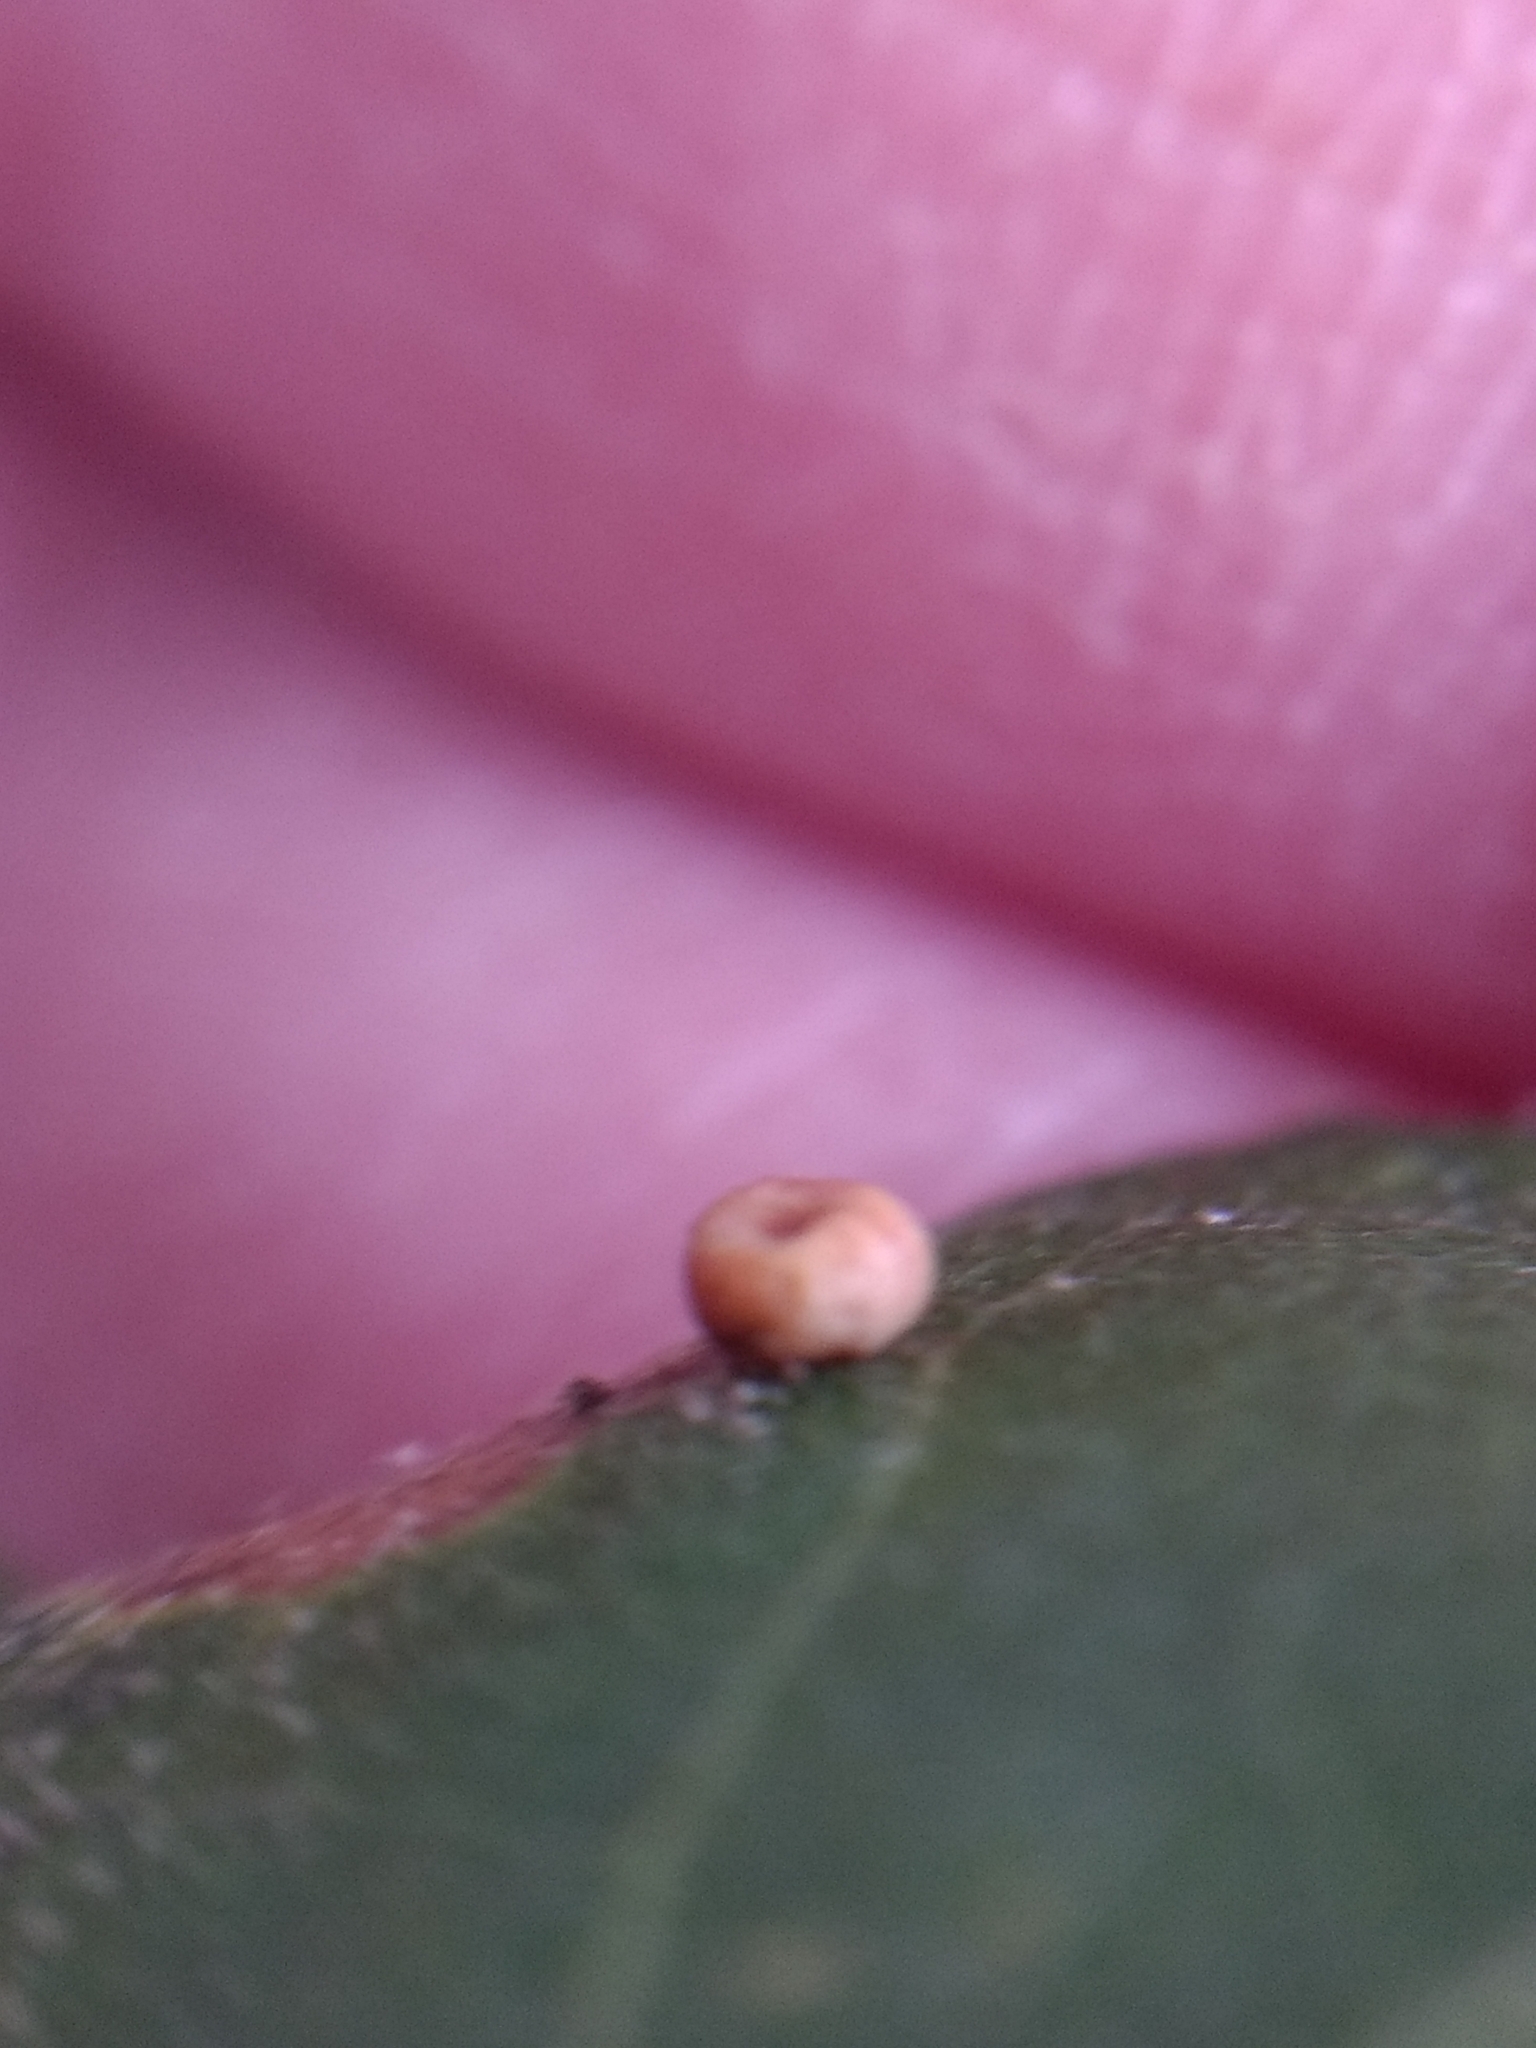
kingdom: Animalia
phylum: Arthropoda
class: Insecta
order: Hymenoptera
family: Cynipidae
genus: Dryocosmus
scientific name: Dryocosmus
